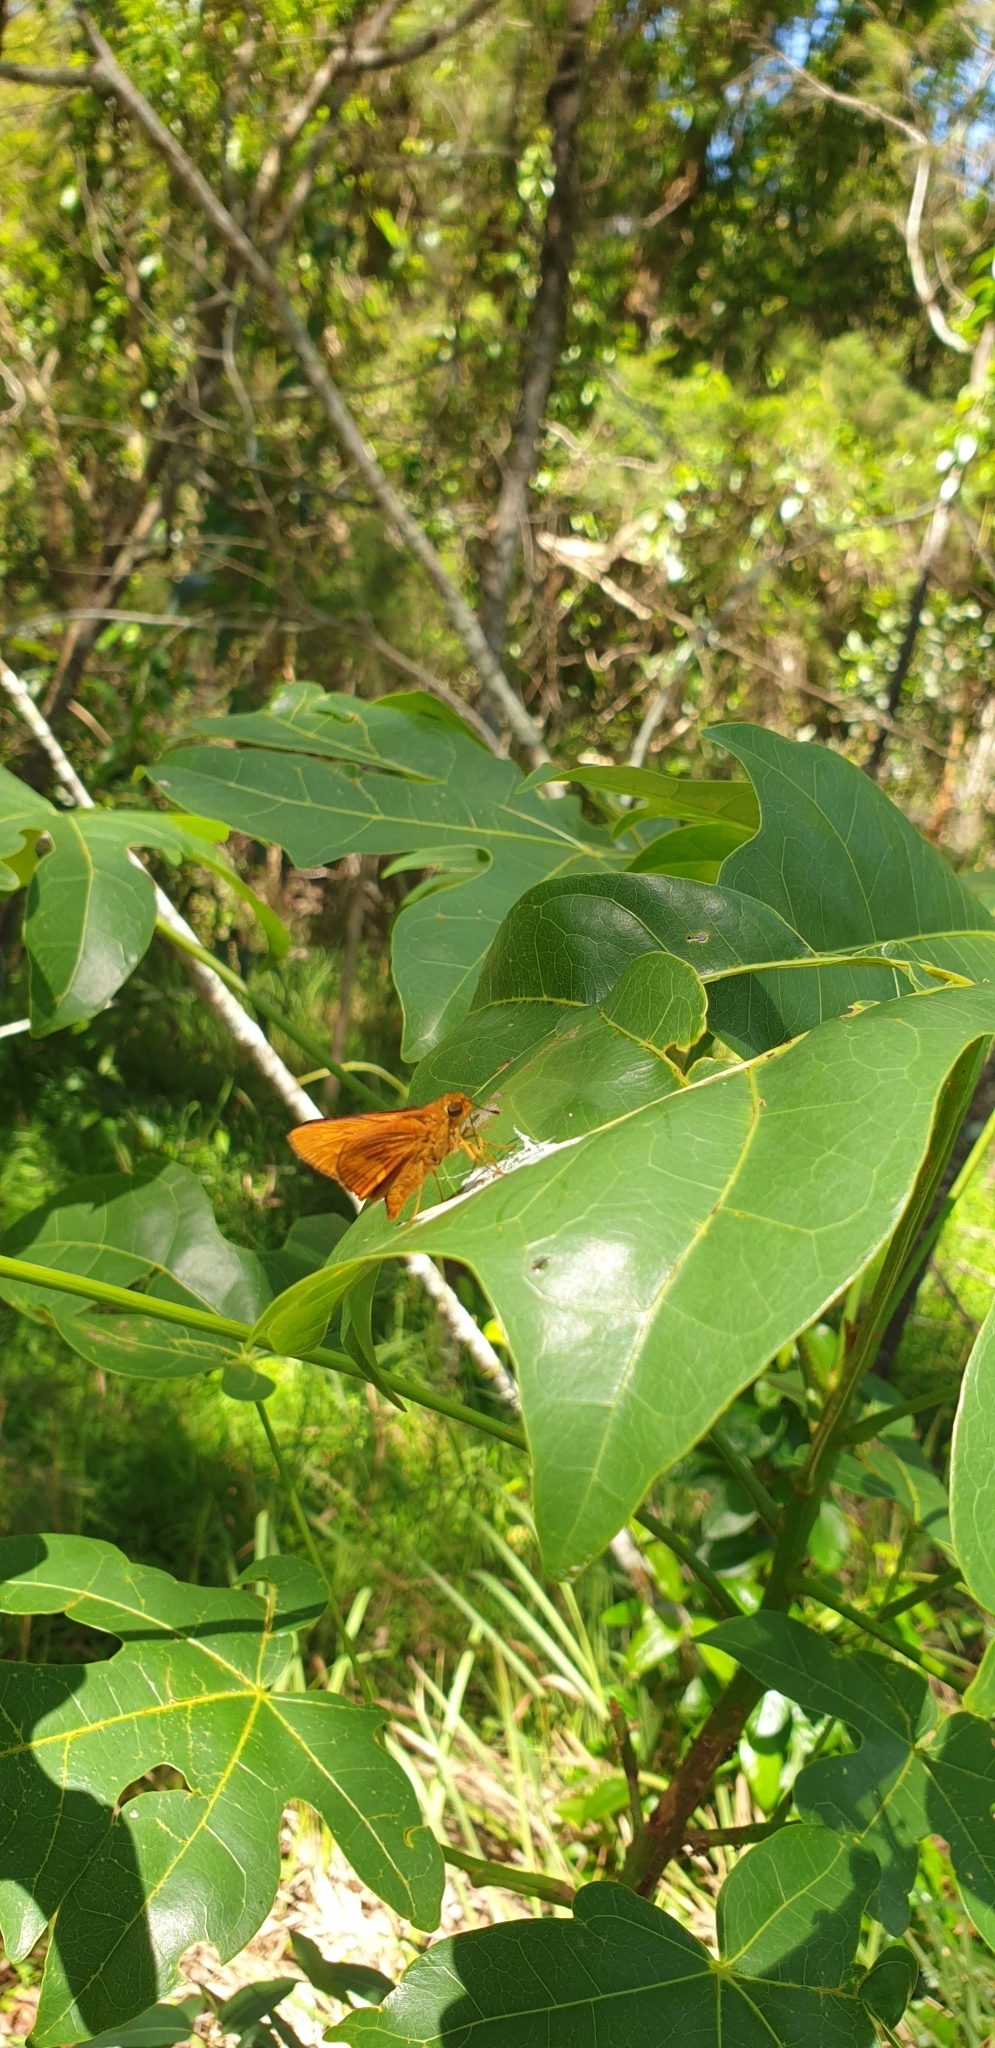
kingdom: Animalia
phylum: Arthropoda
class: Insecta
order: Lepidoptera
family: Hesperiidae
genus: Cephrenes
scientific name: Cephrenes augiades
